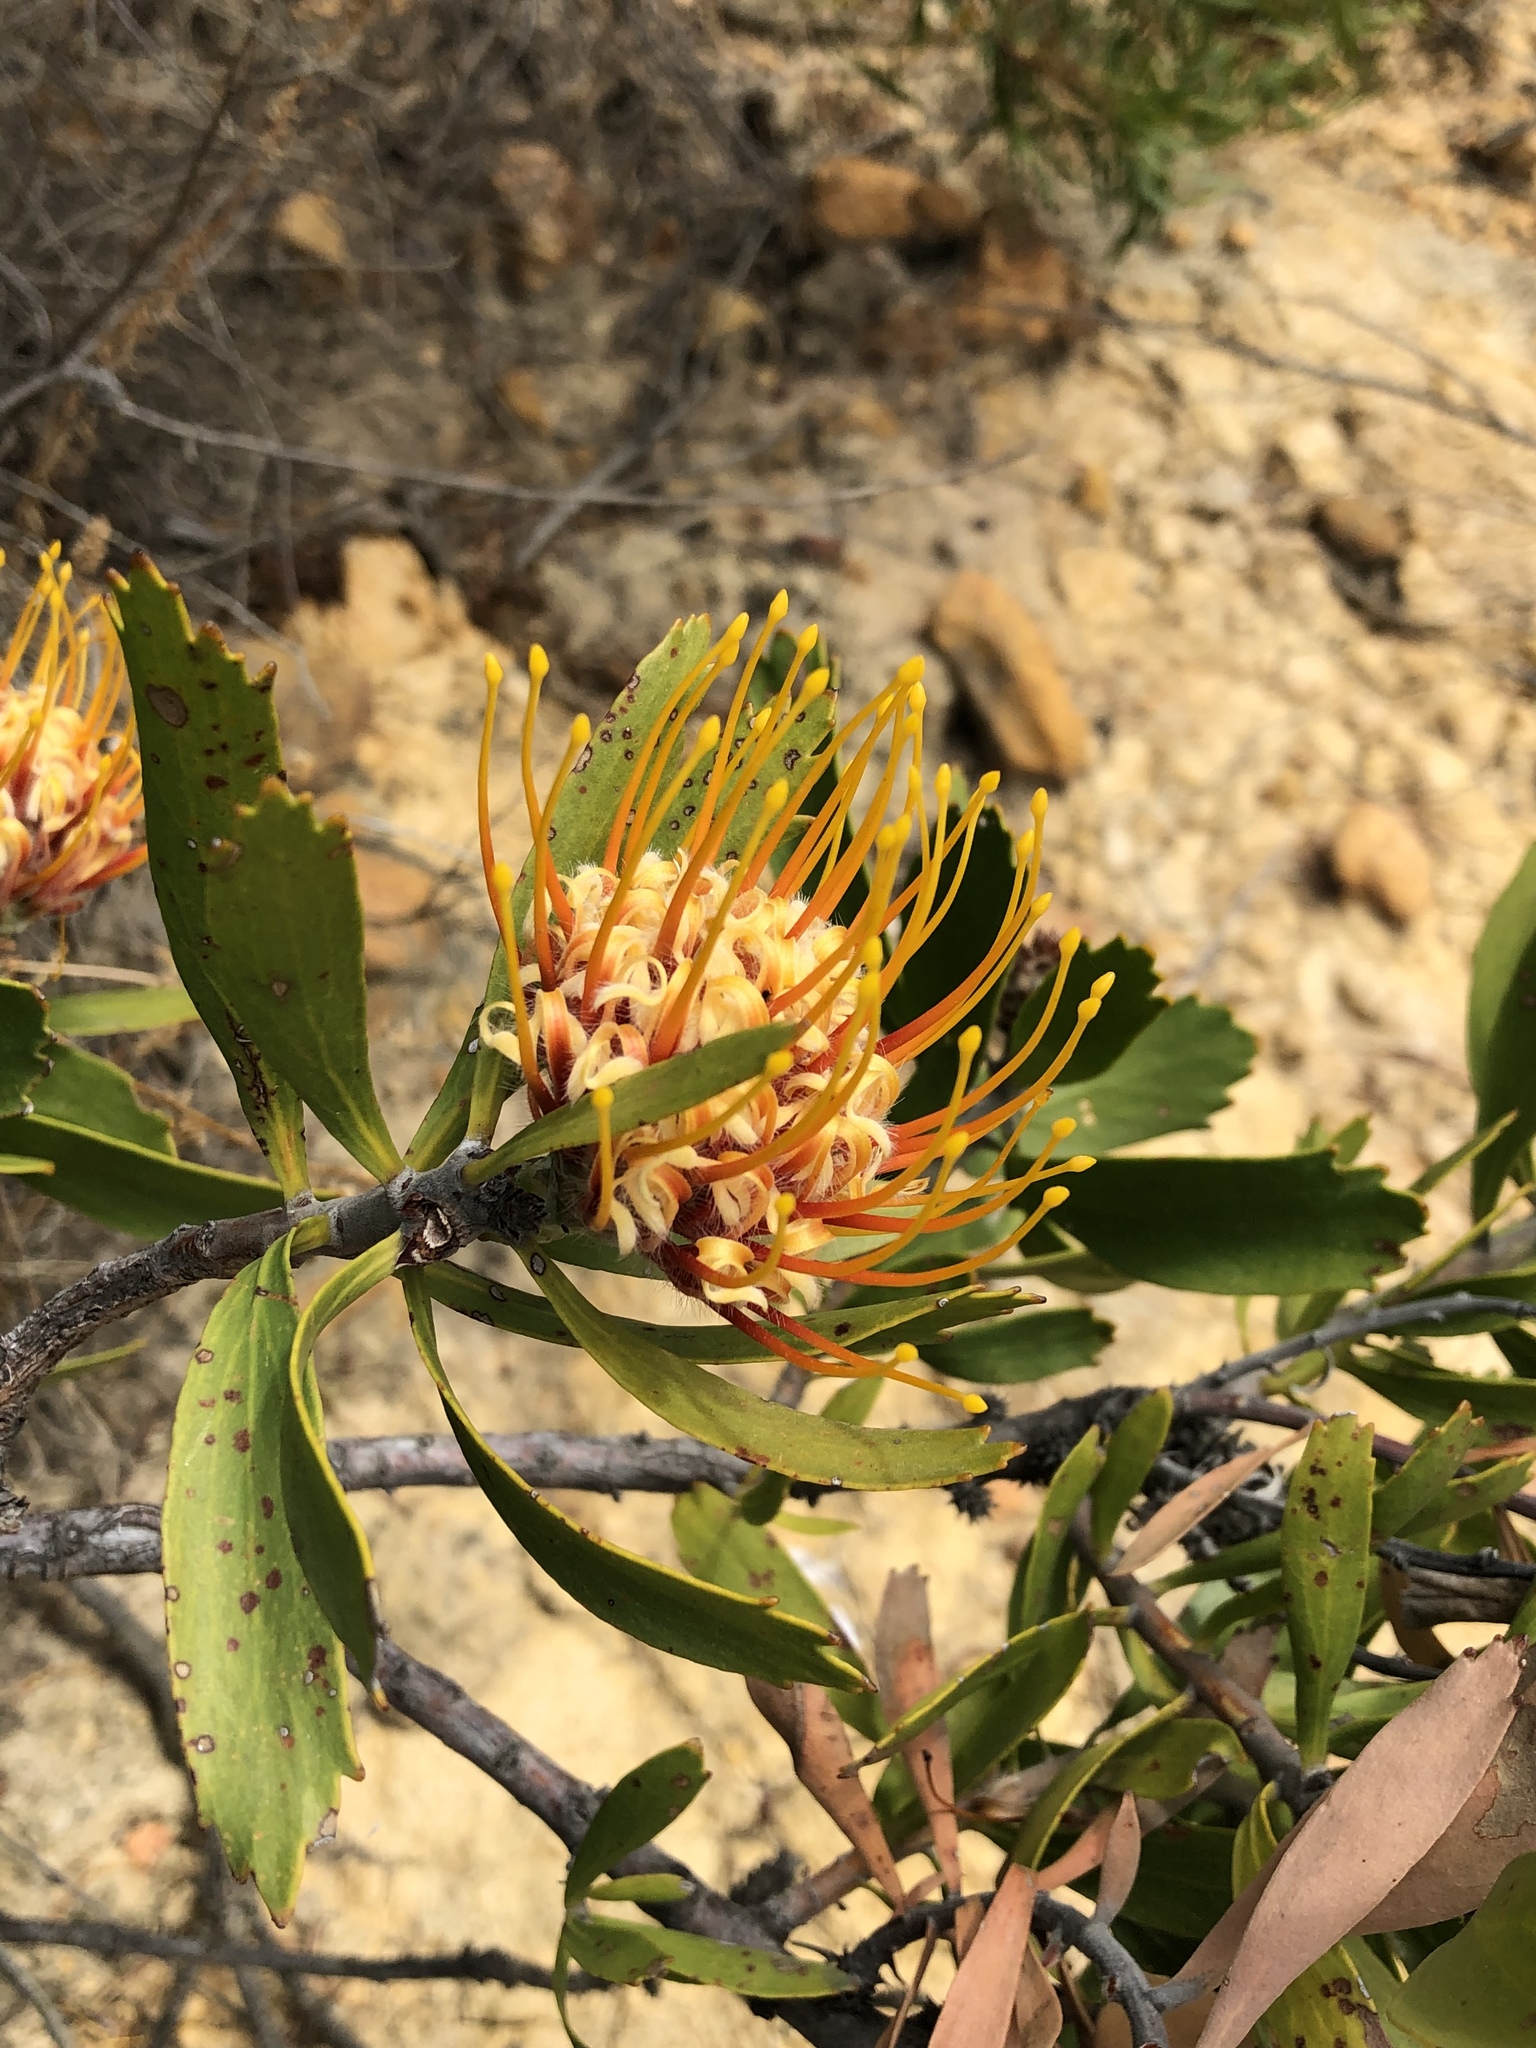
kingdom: Plantae
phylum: Tracheophyta
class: Magnoliopsida
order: Proteales
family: Proteaceae
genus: Leucospermum
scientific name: Leucospermum cuneiforme
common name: Common pincushion
